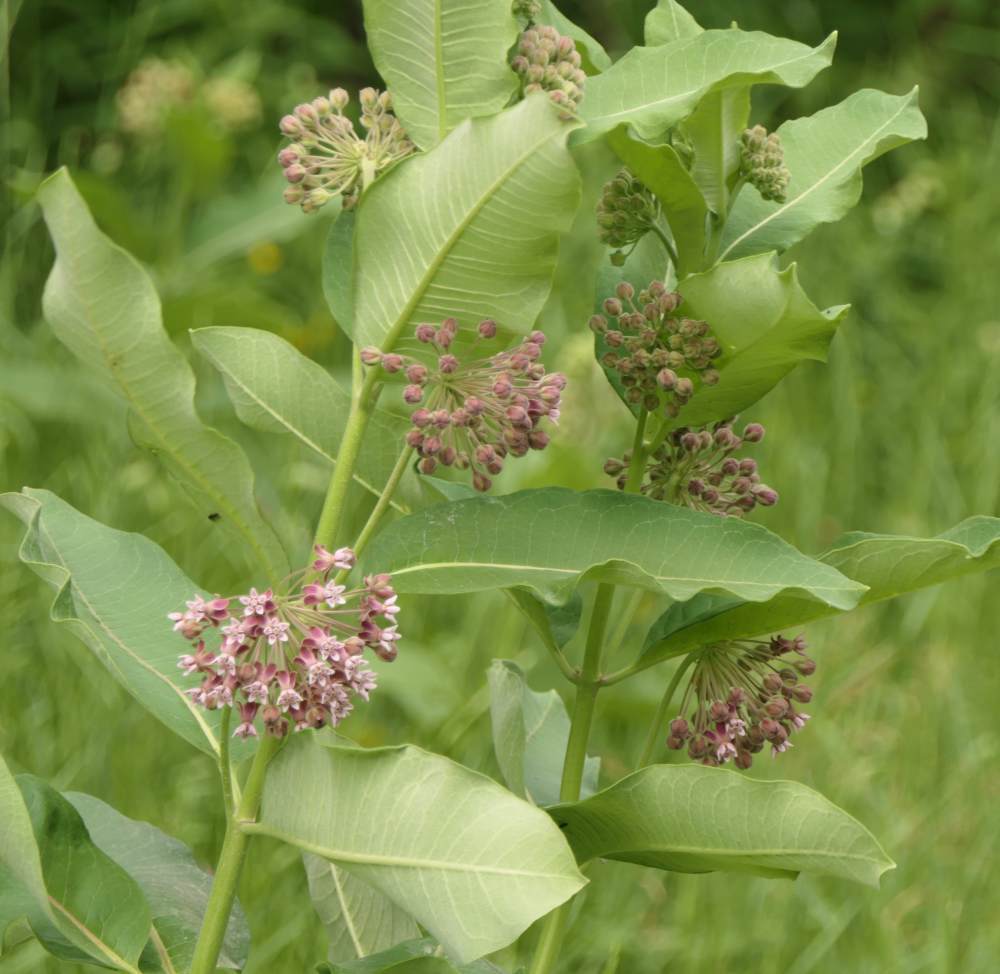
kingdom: Plantae
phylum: Tracheophyta
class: Magnoliopsida
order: Gentianales
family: Apocynaceae
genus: Asclepias
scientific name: Asclepias syriaca
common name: Common milkweed
